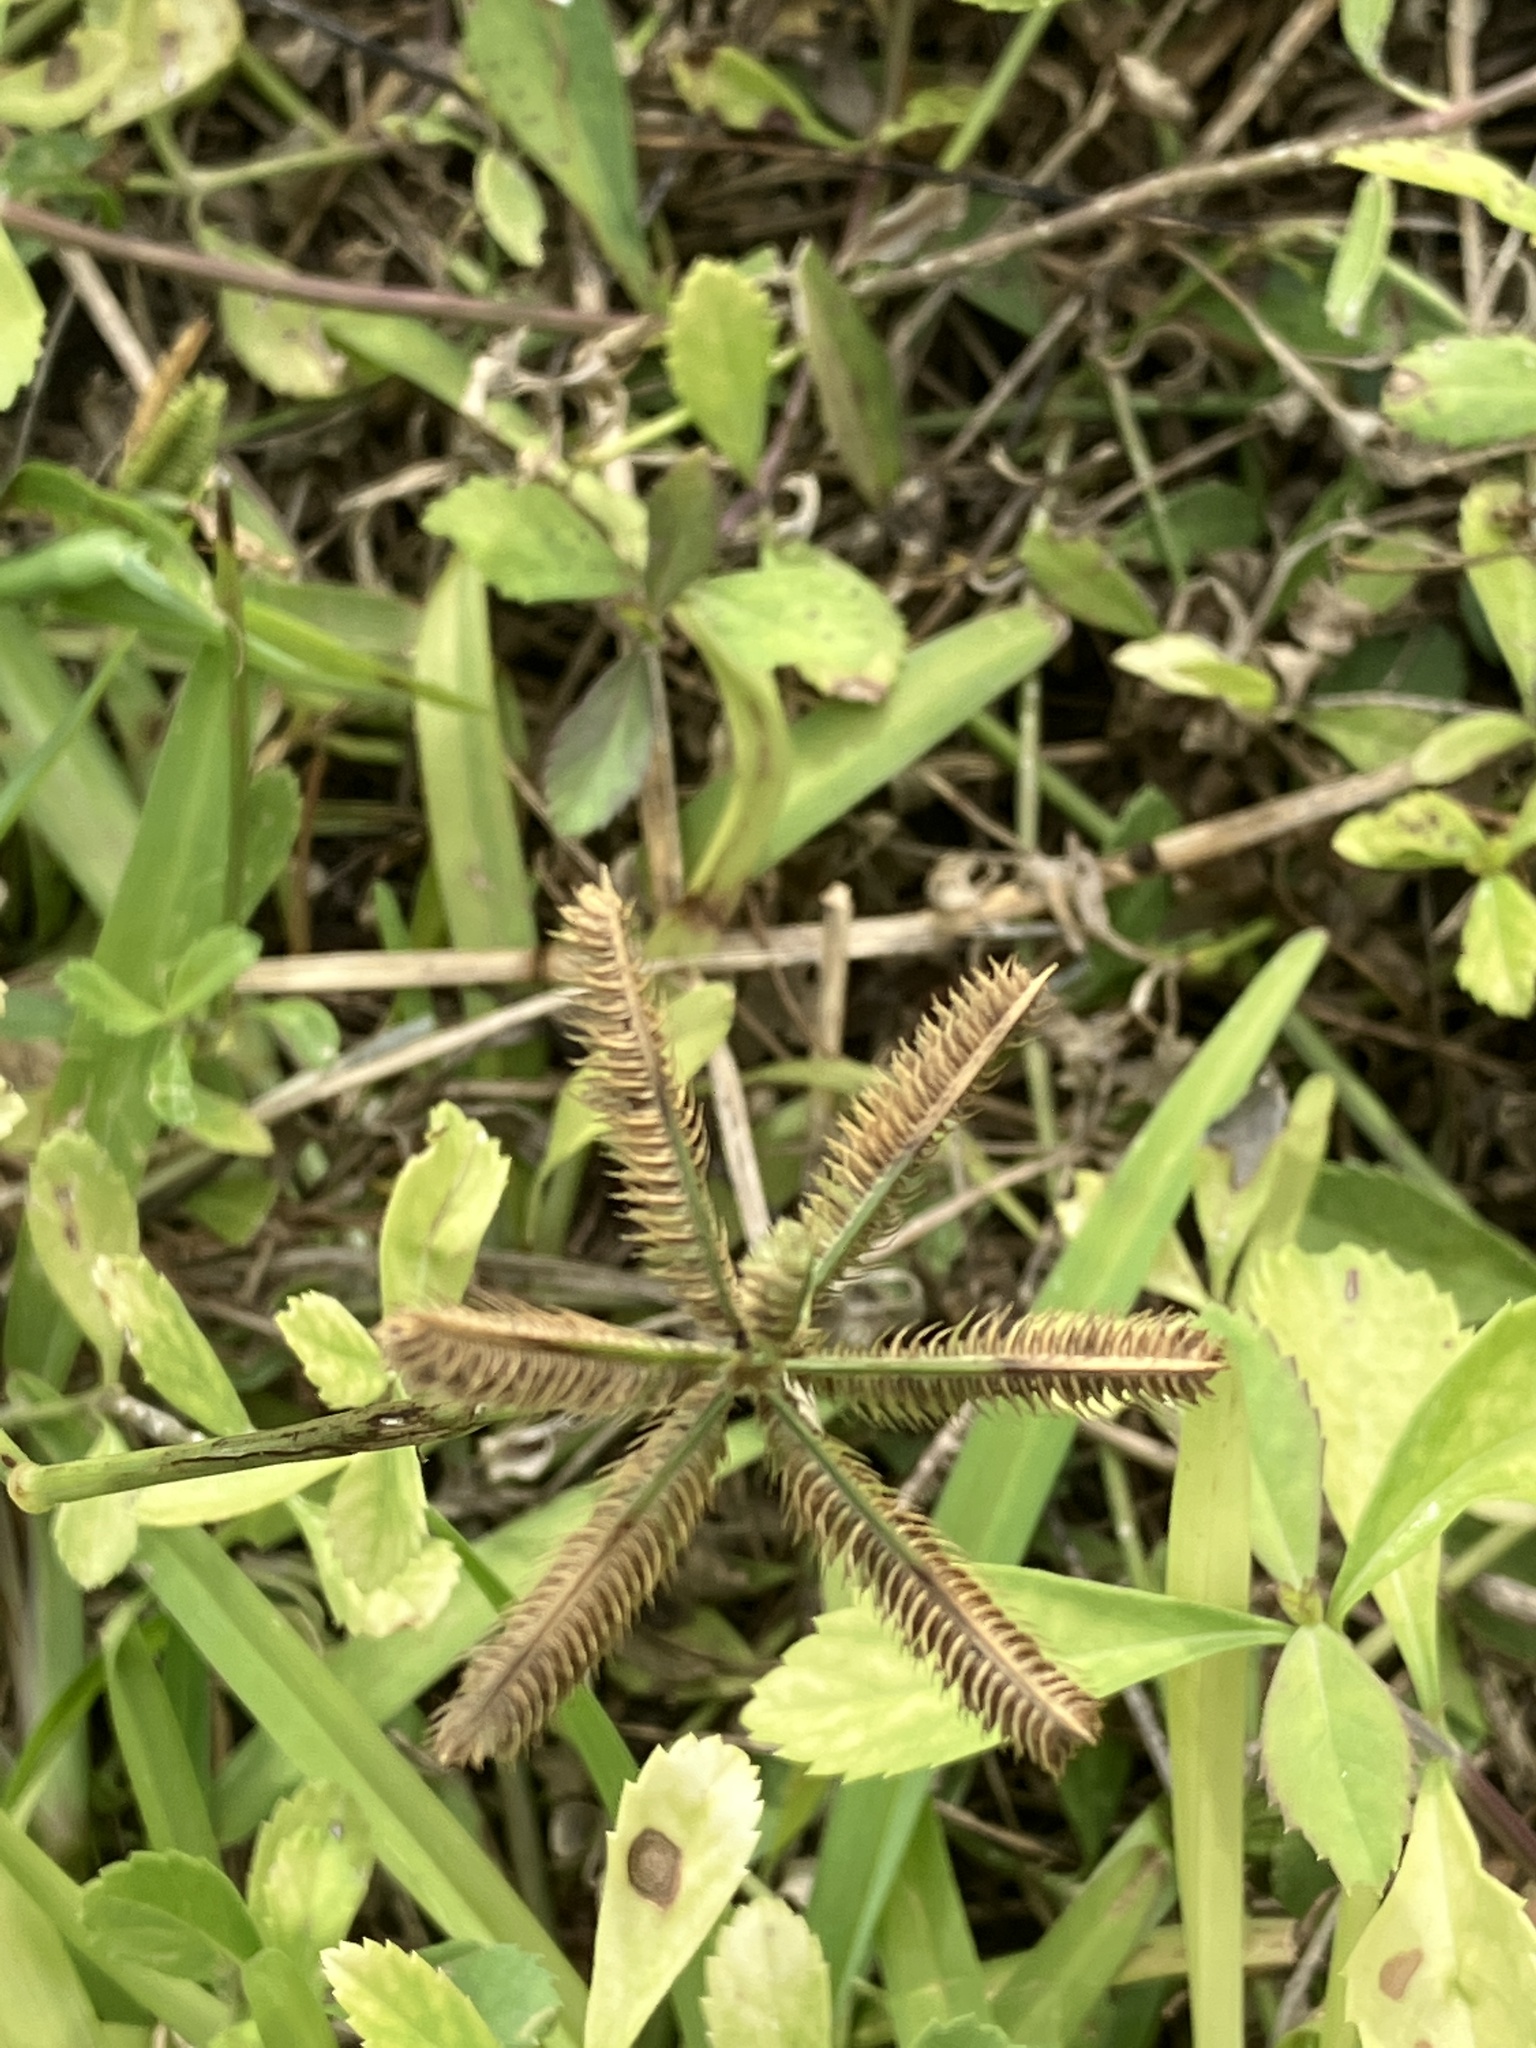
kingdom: Plantae
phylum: Tracheophyta
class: Liliopsida
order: Poales
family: Poaceae
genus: Dactyloctenium
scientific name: Dactyloctenium ctenoides
